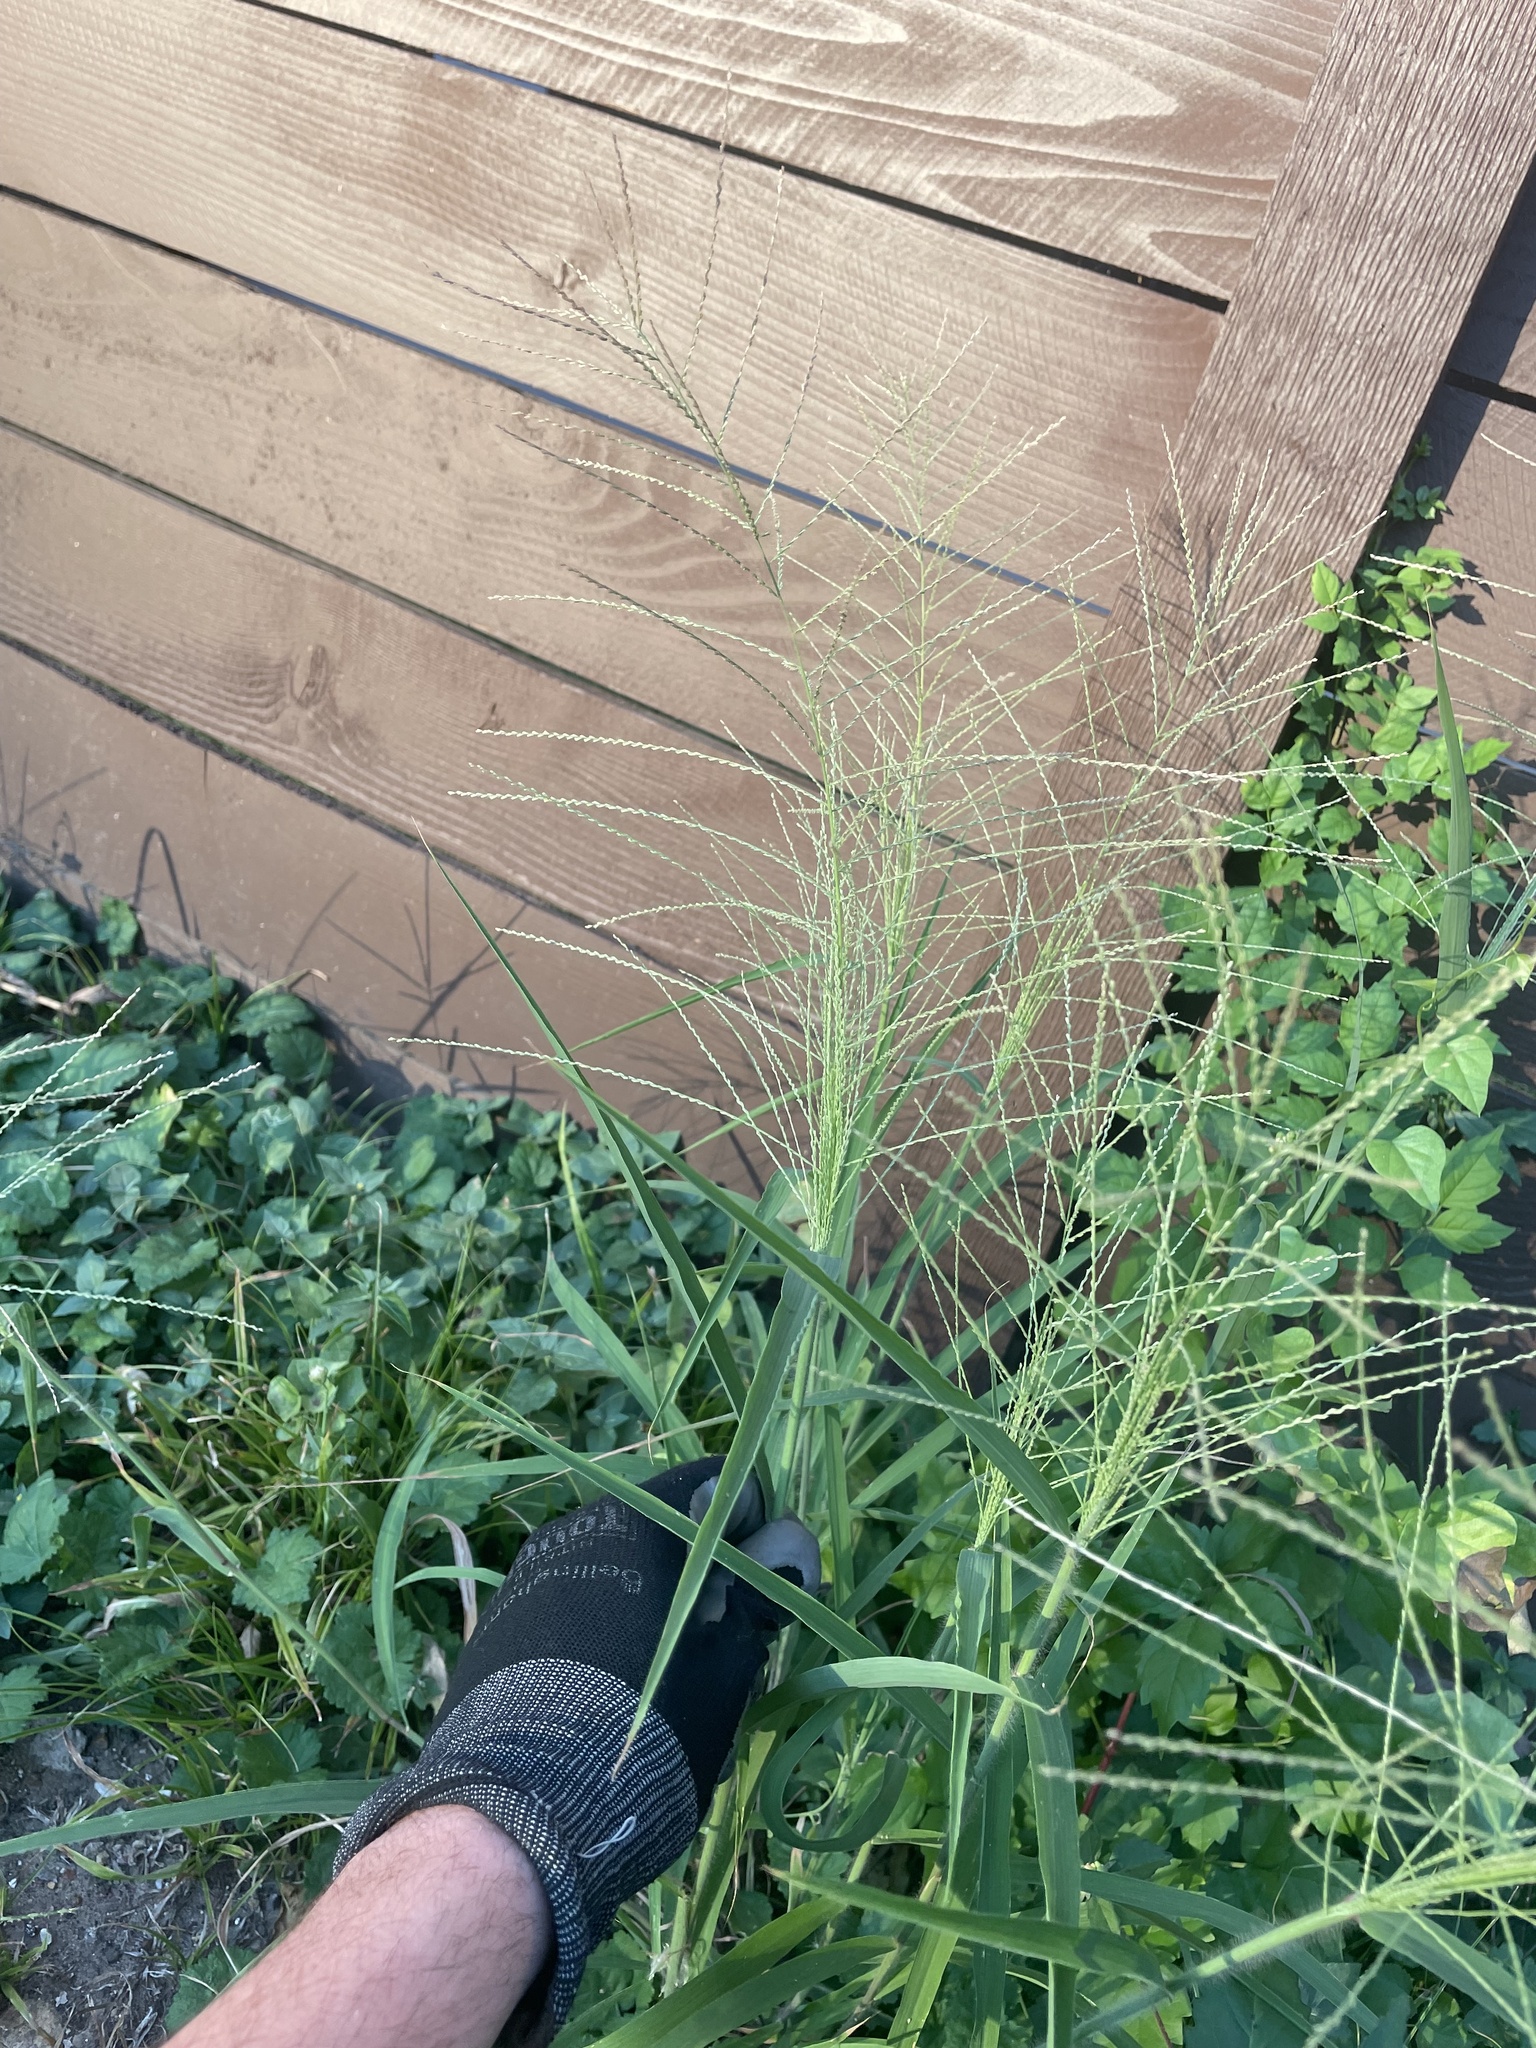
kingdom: Plantae
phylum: Tracheophyta
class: Liliopsida
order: Poales
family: Poaceae
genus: Leptochloa
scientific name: Leptochloa panicea
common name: Mucronate sprangletop
